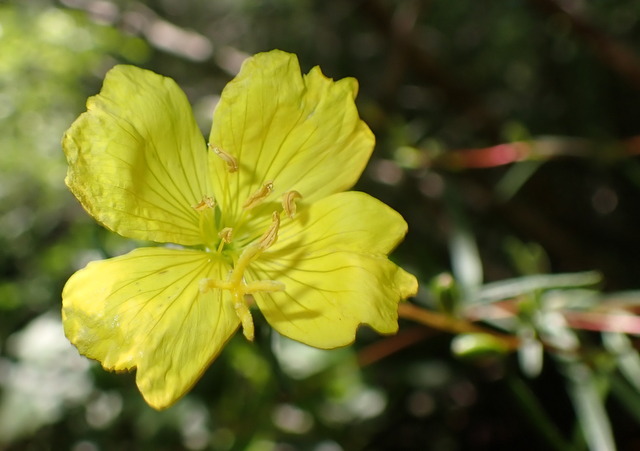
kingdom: Plantae
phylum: Tracheophyta
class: Magnoliopsida
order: Myrtales
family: Onagraceae
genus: Oenothera
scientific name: Oenothera fruticosa
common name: Southern sundrops
